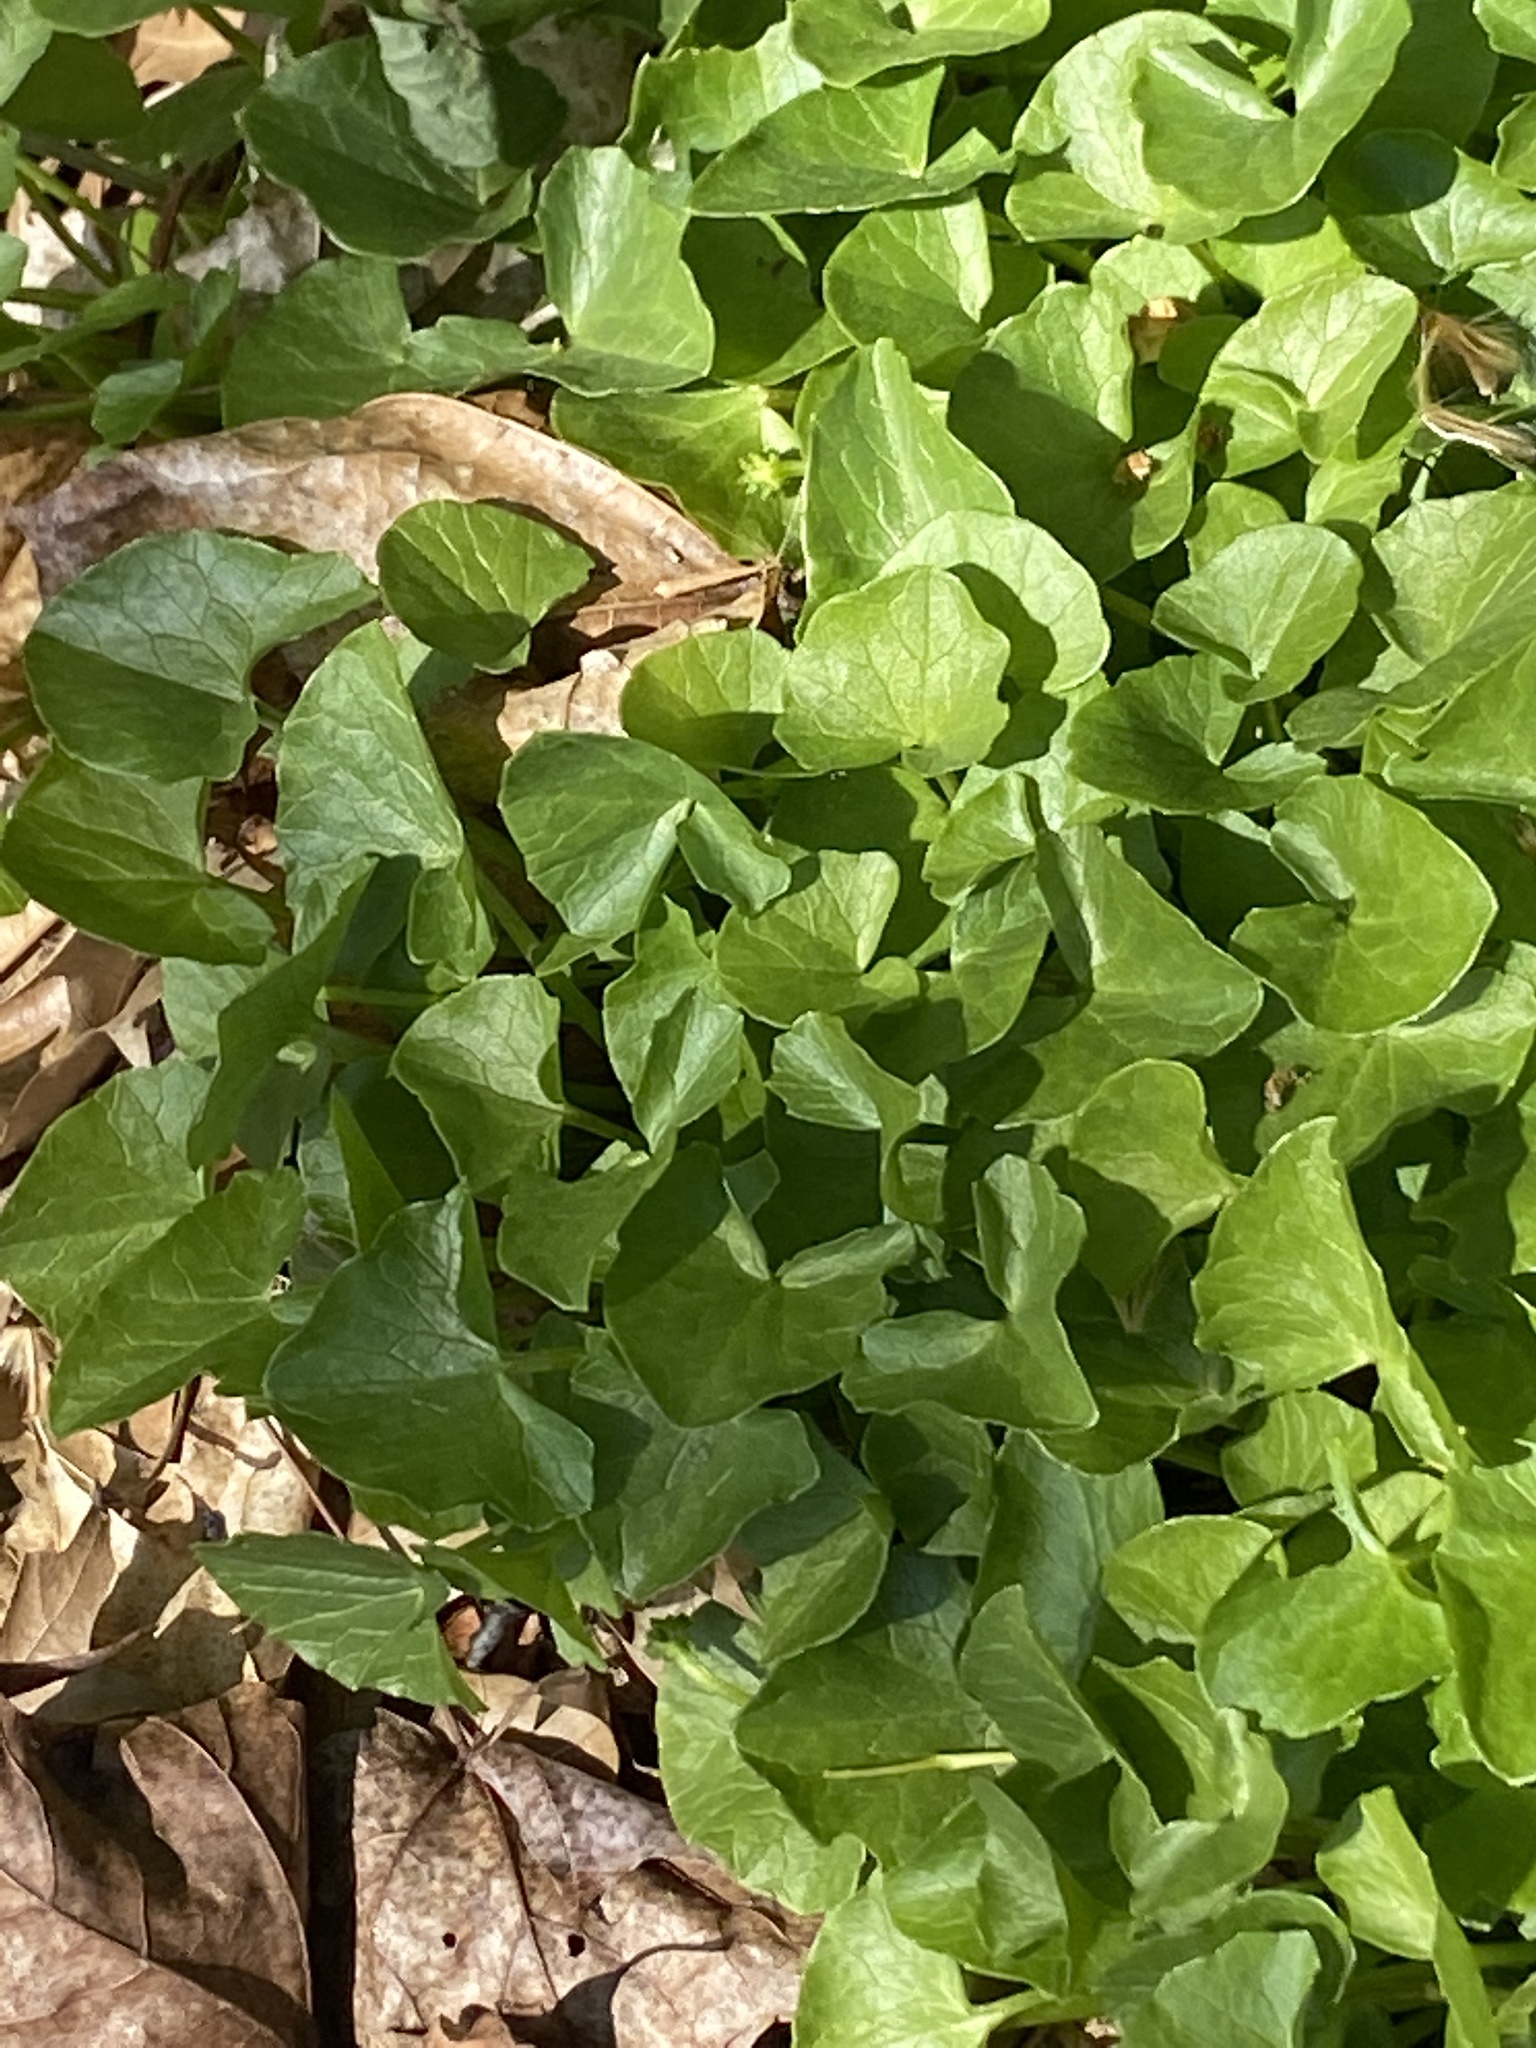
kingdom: Plantae
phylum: Tracheophyta
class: Magnoliopsida
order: Ranunculales
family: Ranunculaceae
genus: Ficaria
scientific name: Ficaria verna
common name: Lesser celandine
